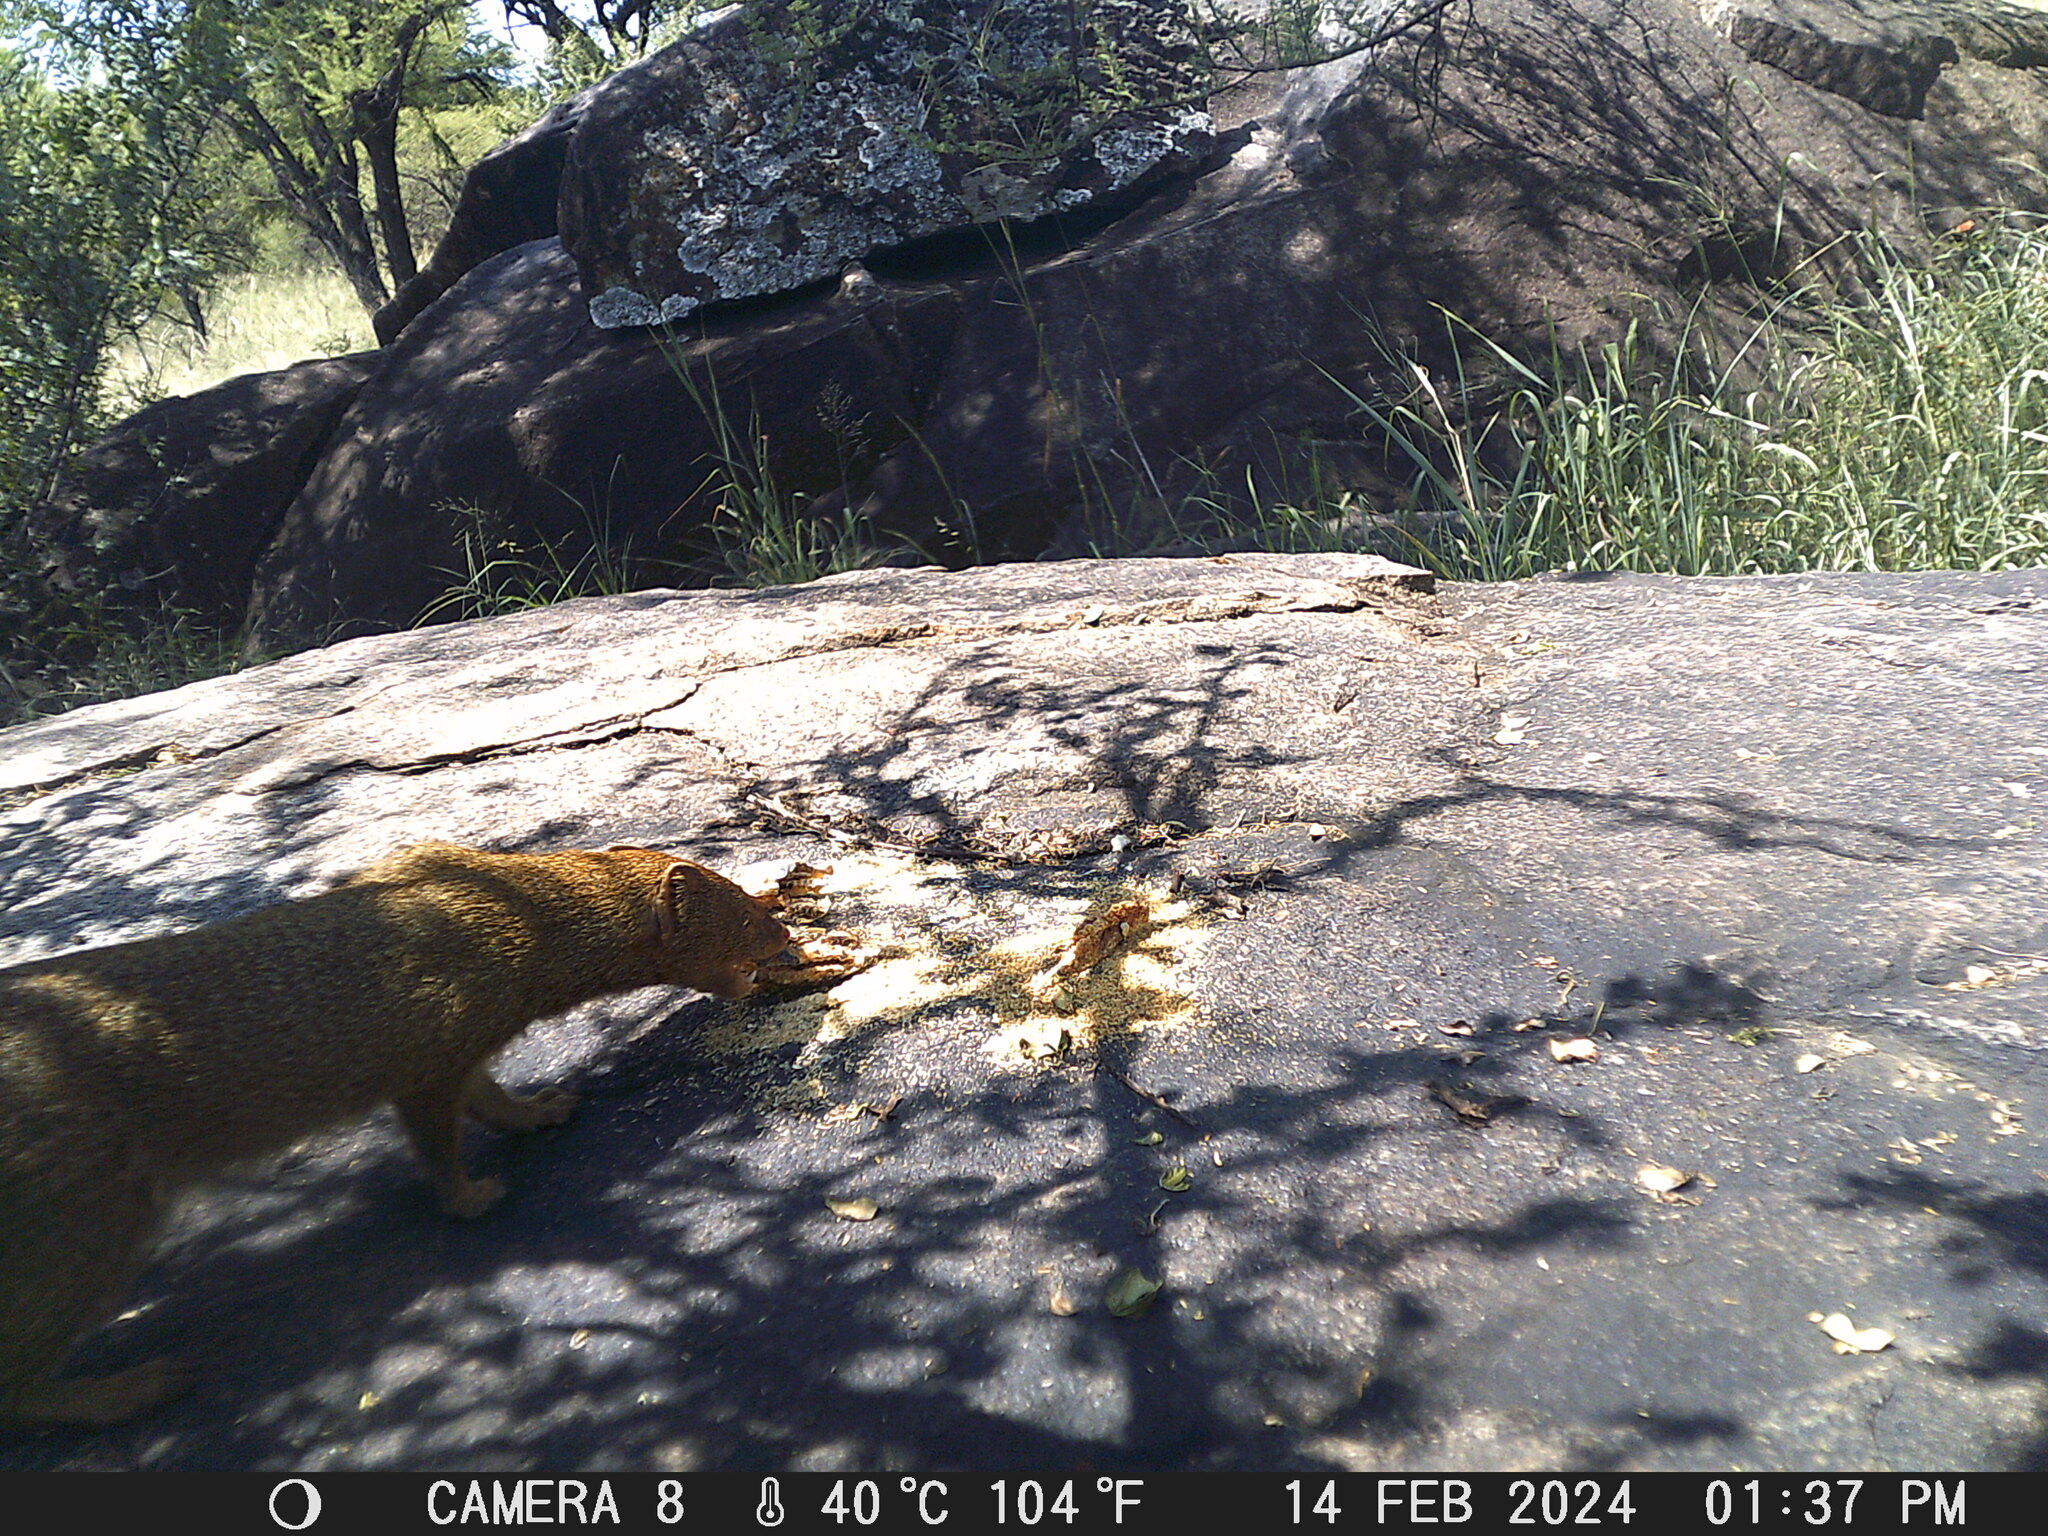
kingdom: Animalia
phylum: Chordata
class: Mammalia
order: Carnivora
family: Herpestidae
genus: Galerella
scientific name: Galerella sanguinea
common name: Slender mongoose
